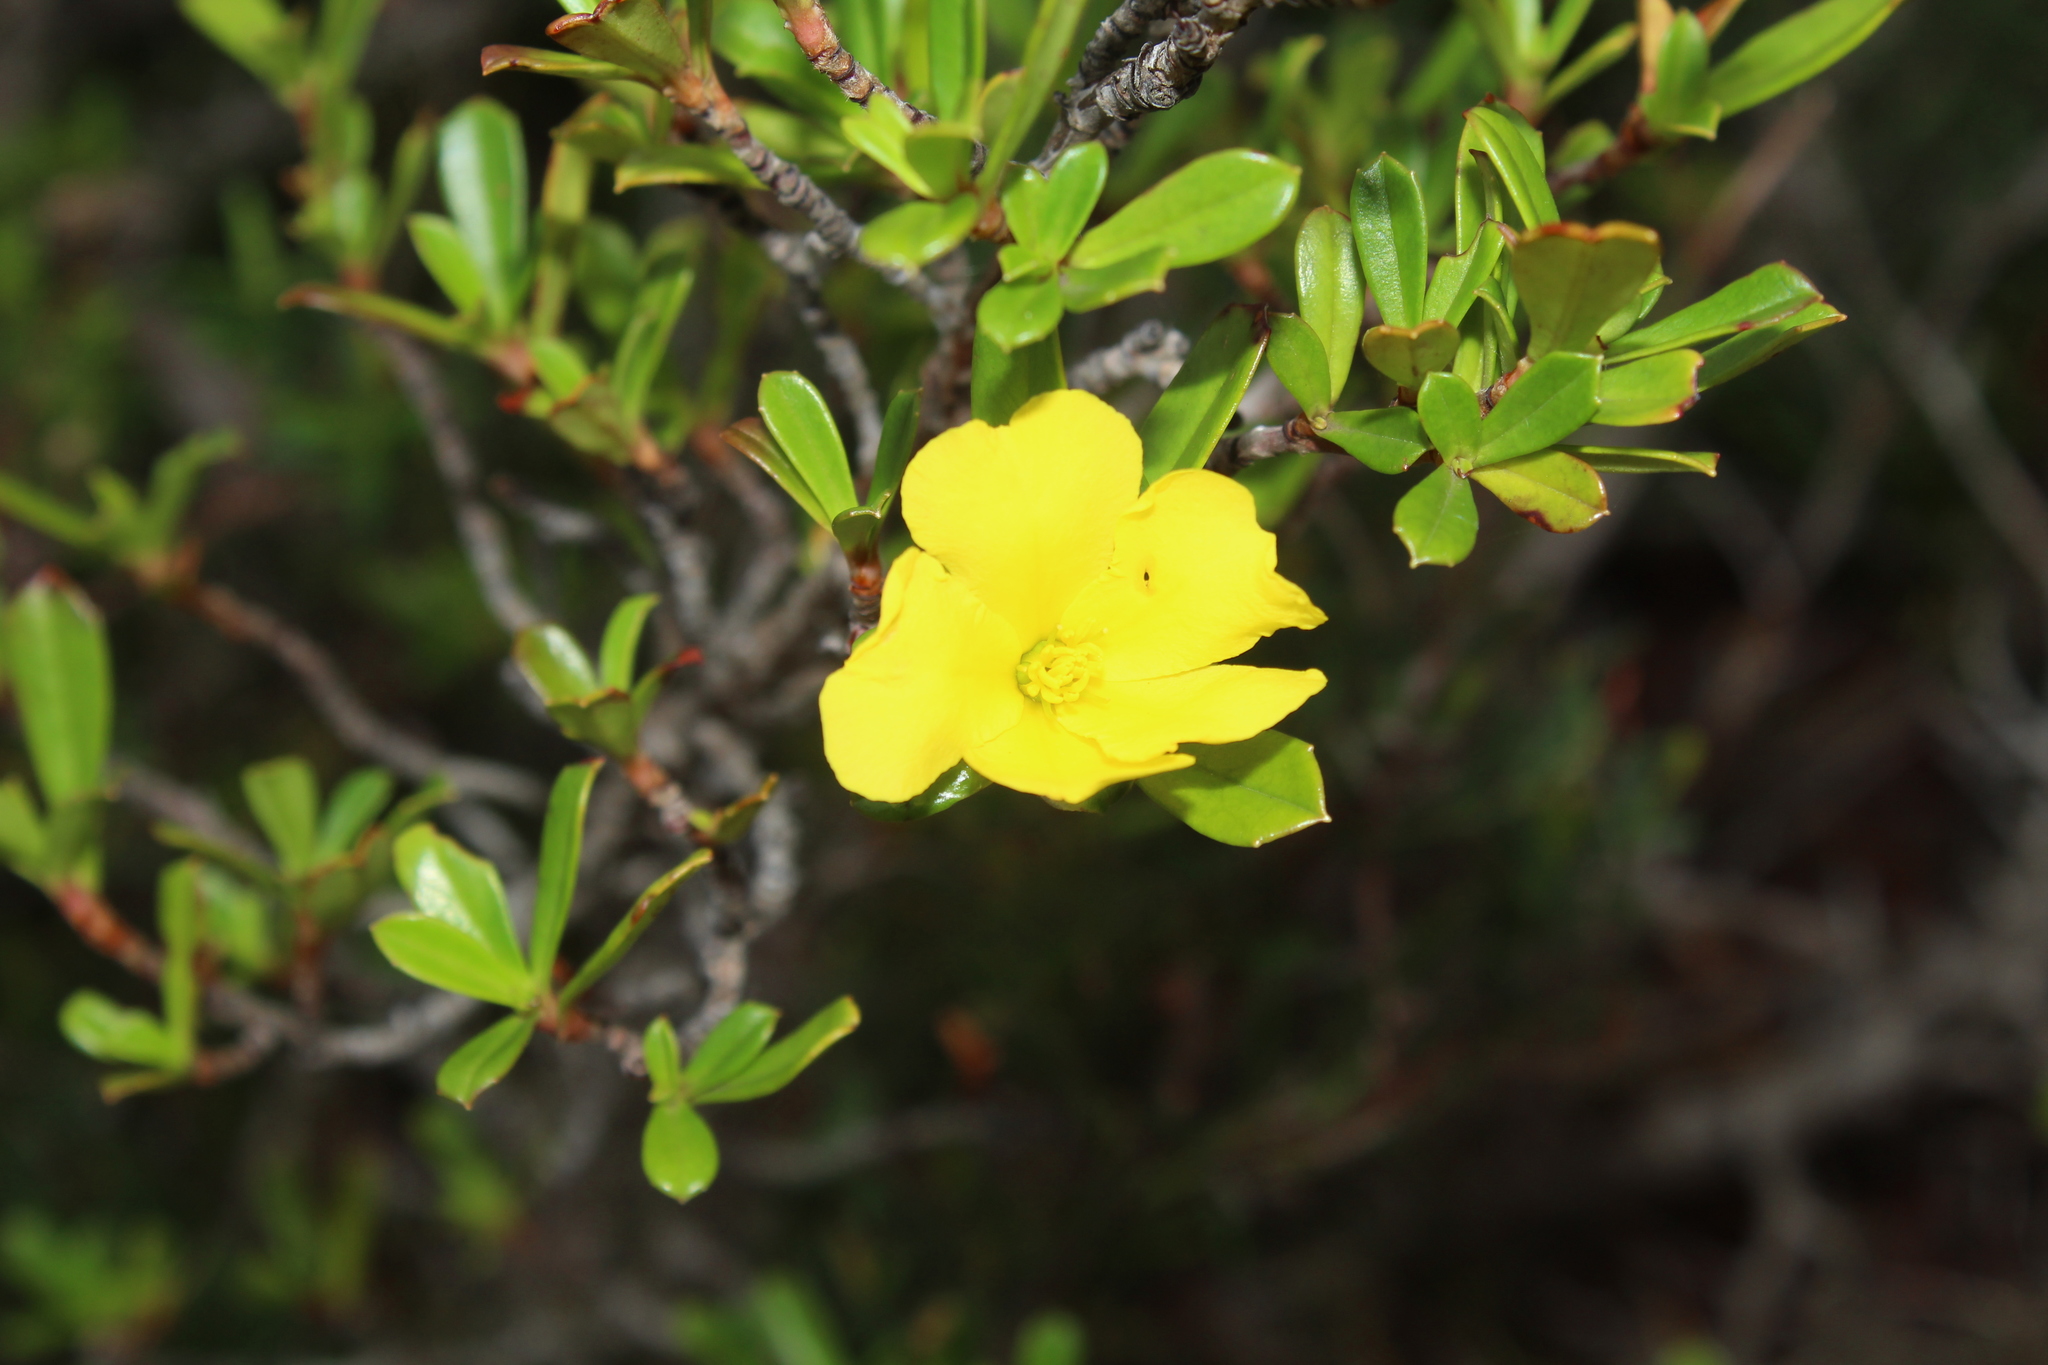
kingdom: Plantae
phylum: Tracheophyta
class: Magnoliopsida
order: Dilleniales
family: Dilleniaceae
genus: Hibbertia
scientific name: Hibbertia cuneiformis
